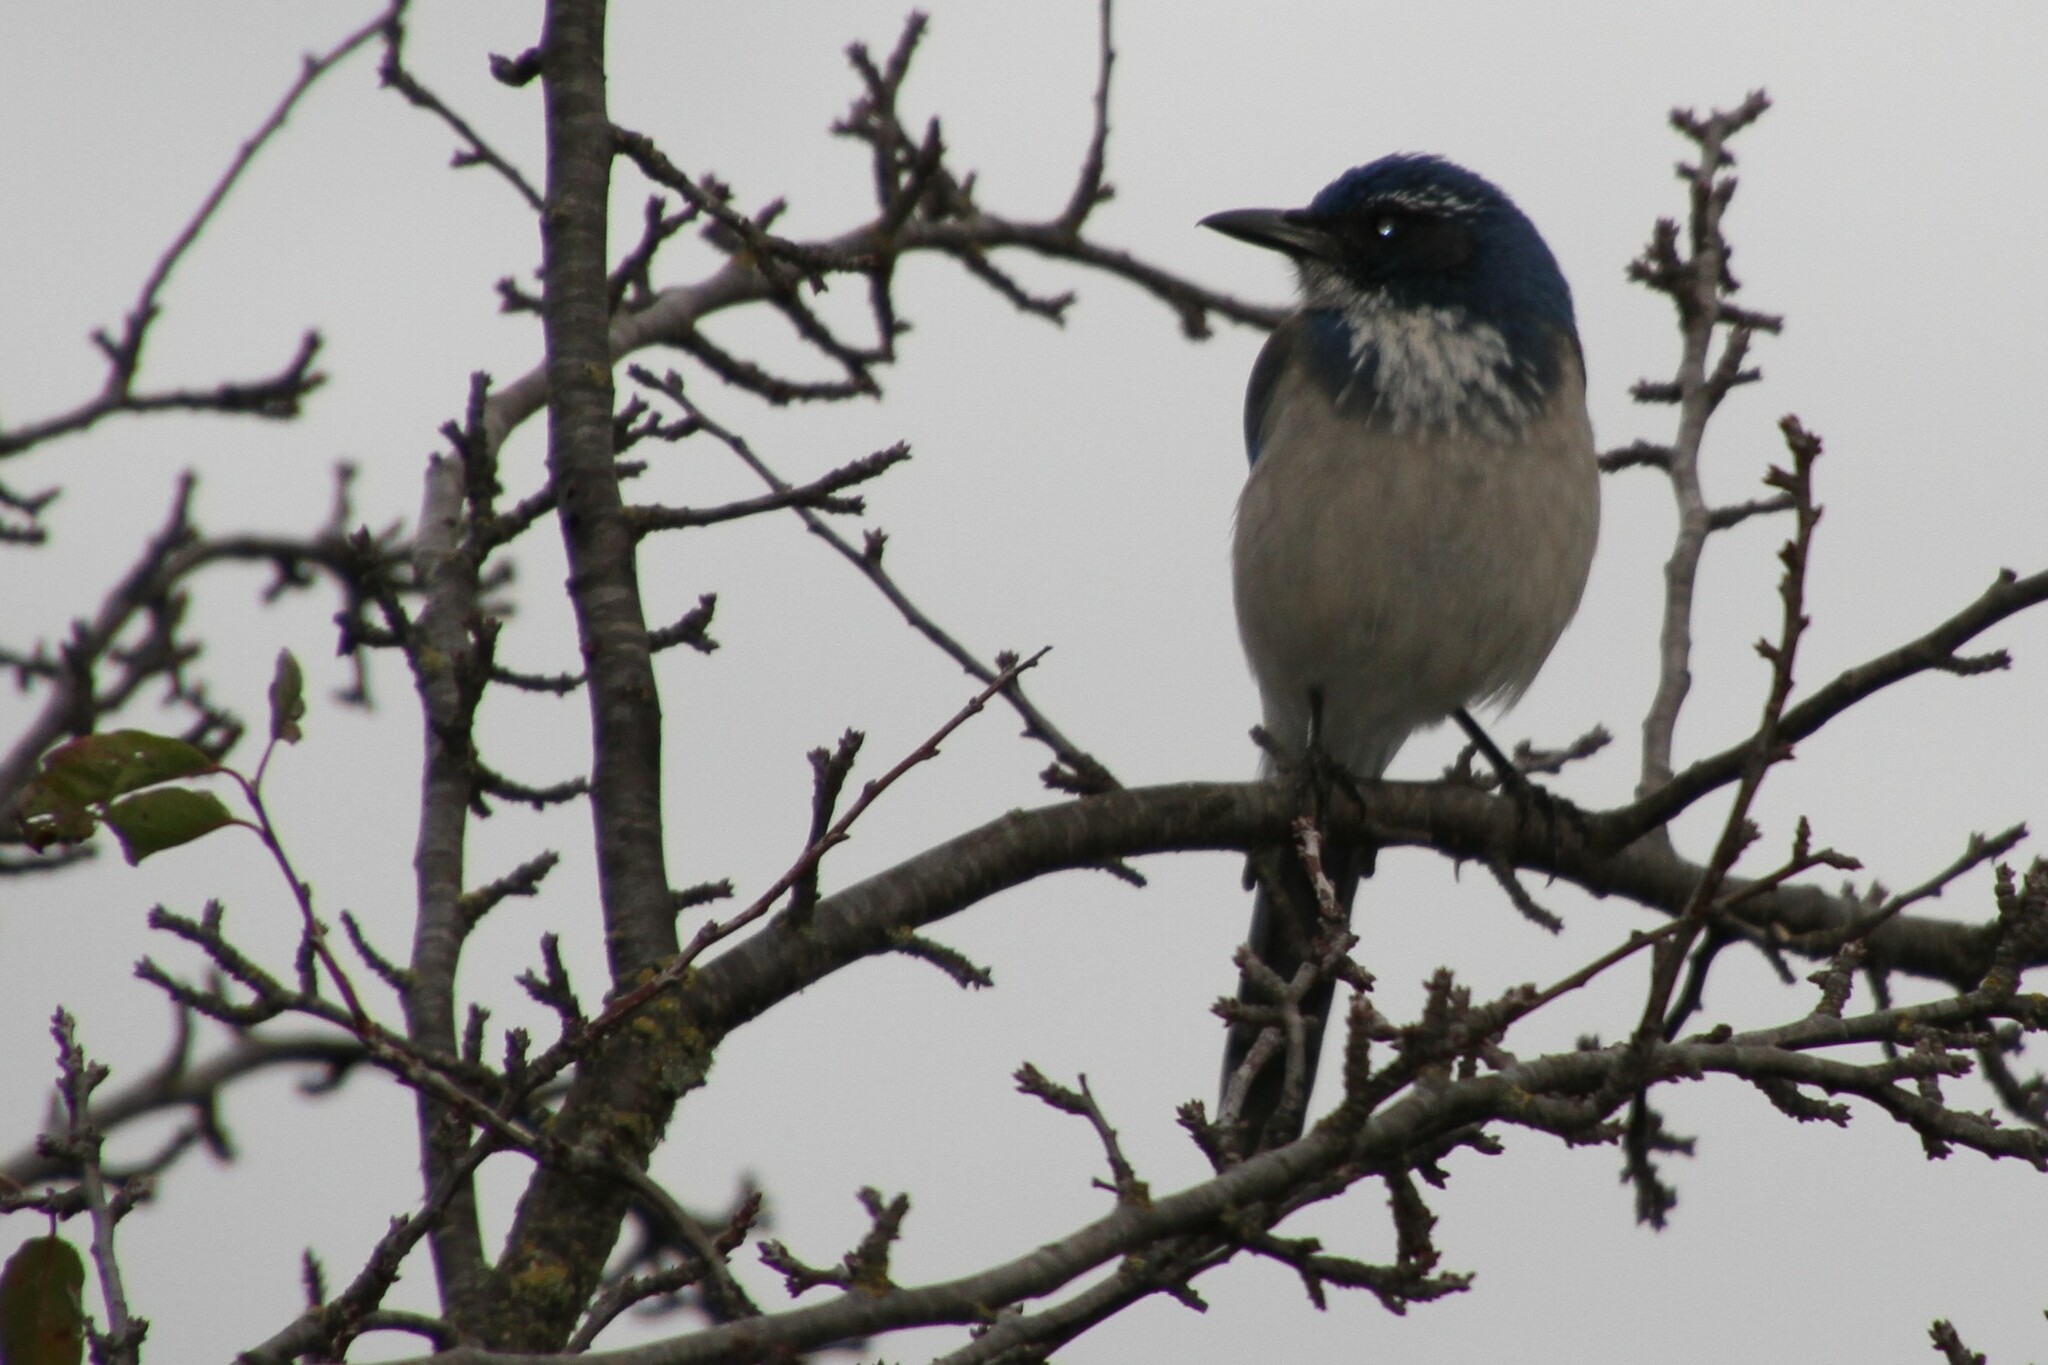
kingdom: Animalia
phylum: Chordata
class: Aves
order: Passeriformes
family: Corvidae
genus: Aphelocoma
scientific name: Aphelocoma californica
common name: California scrub-jay
